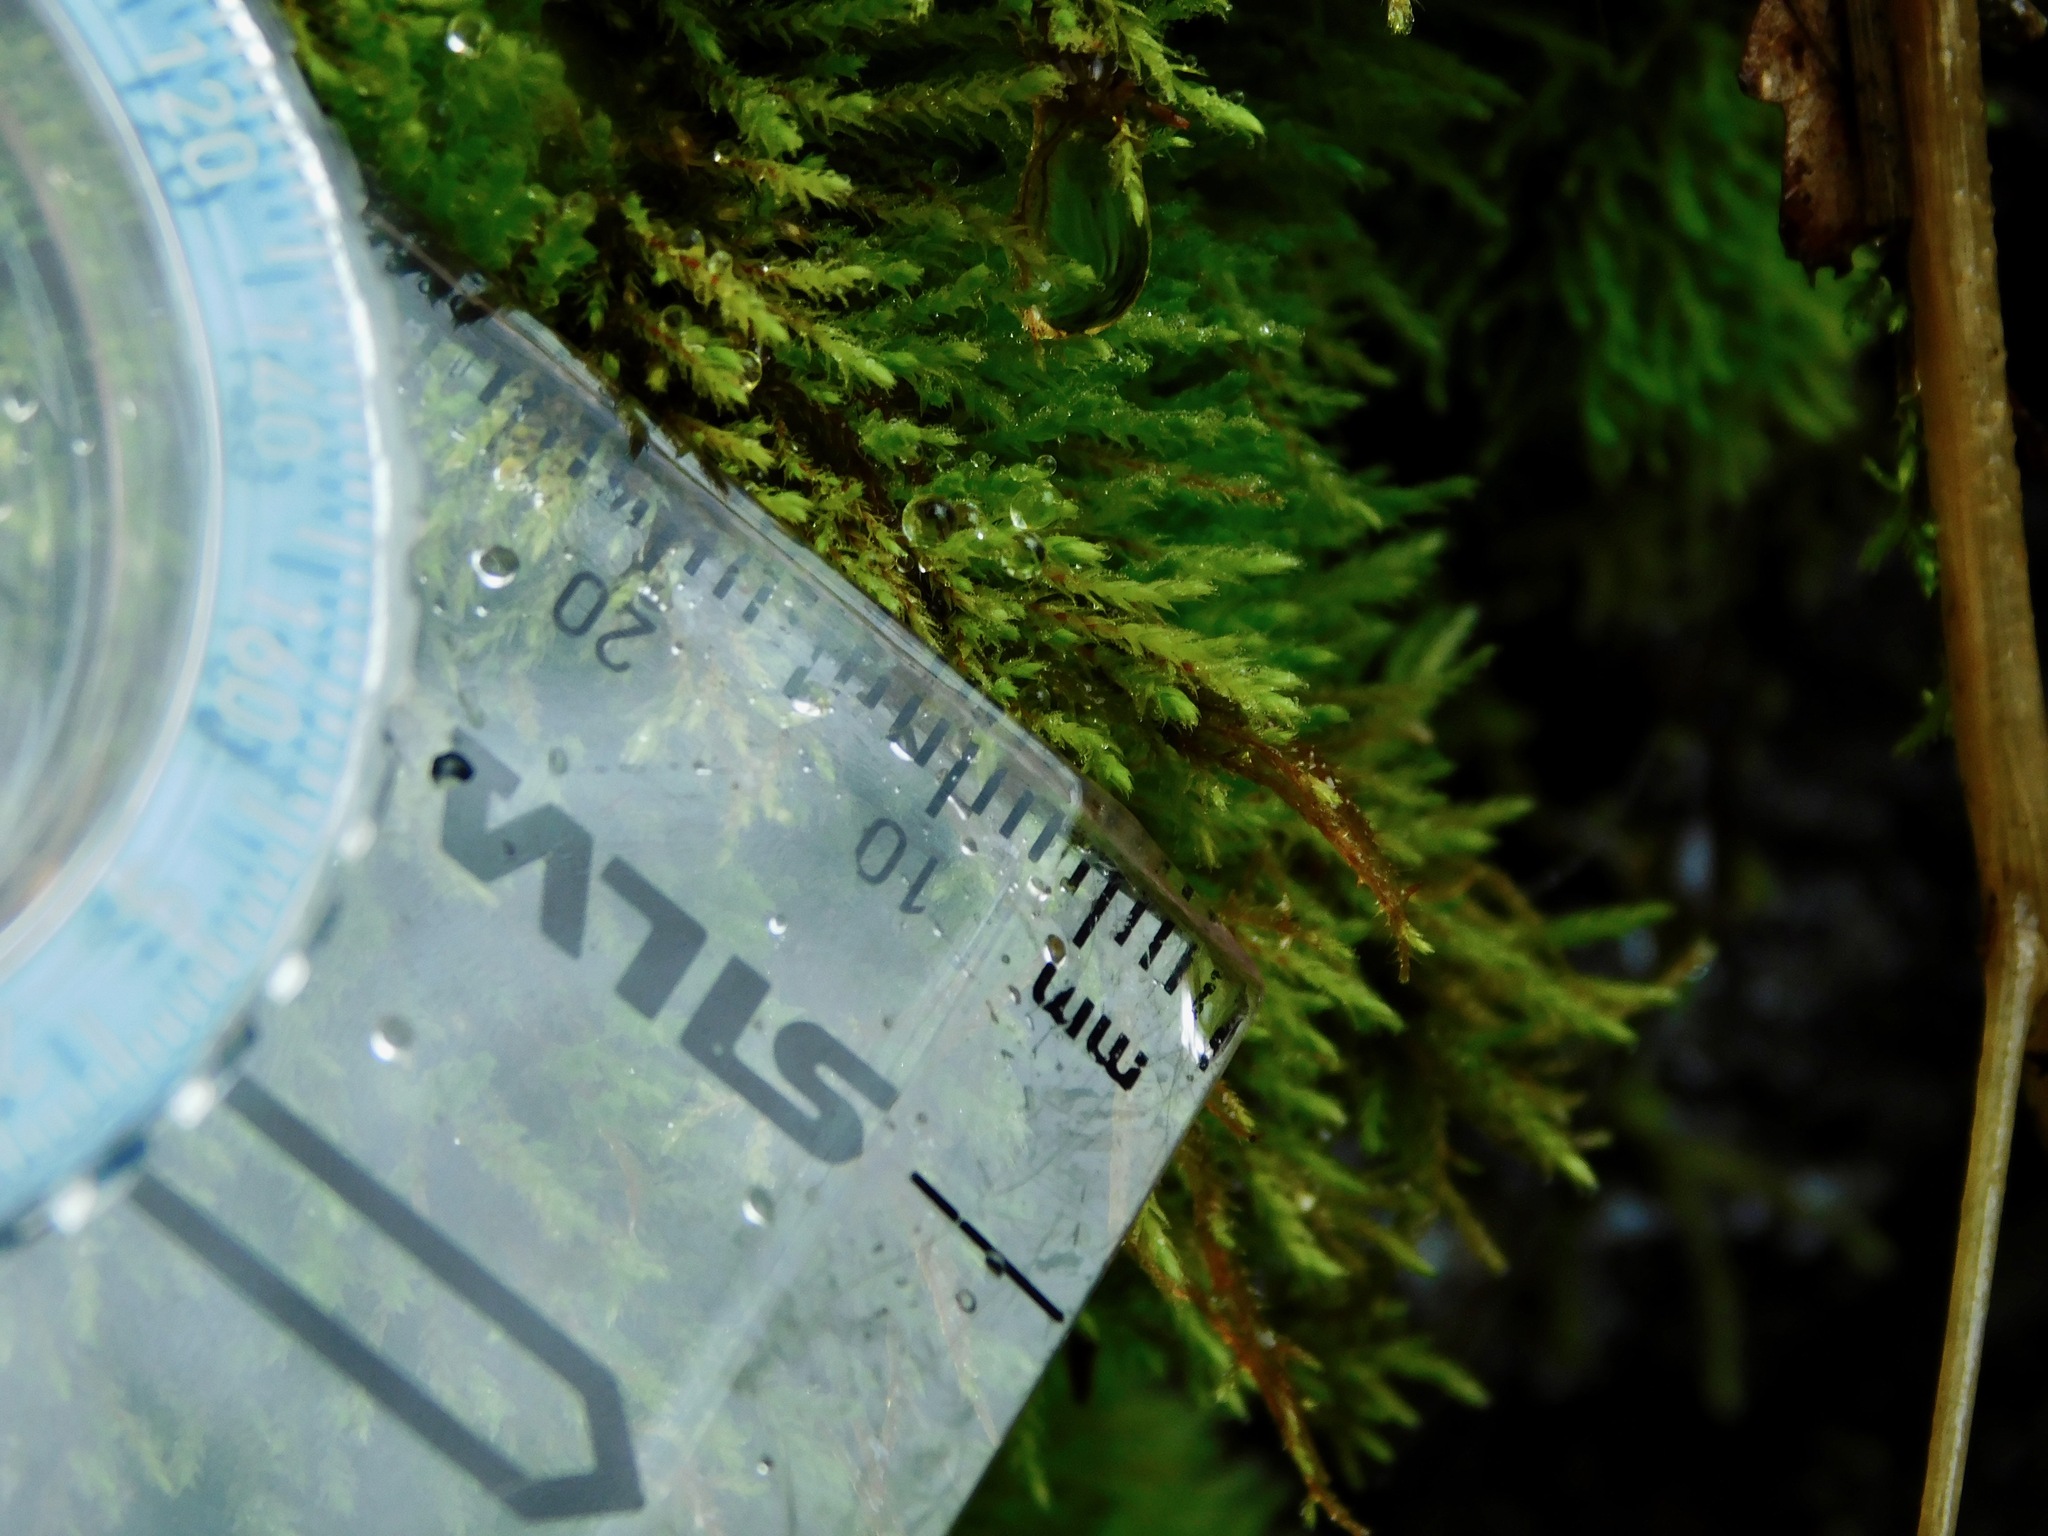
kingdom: Plantae
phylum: Bryophyta
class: Bryopsida
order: Bartramiales
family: Bartramiaceae
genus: Philonotis
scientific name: Philonotis fontana
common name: Fountain apple-moss
